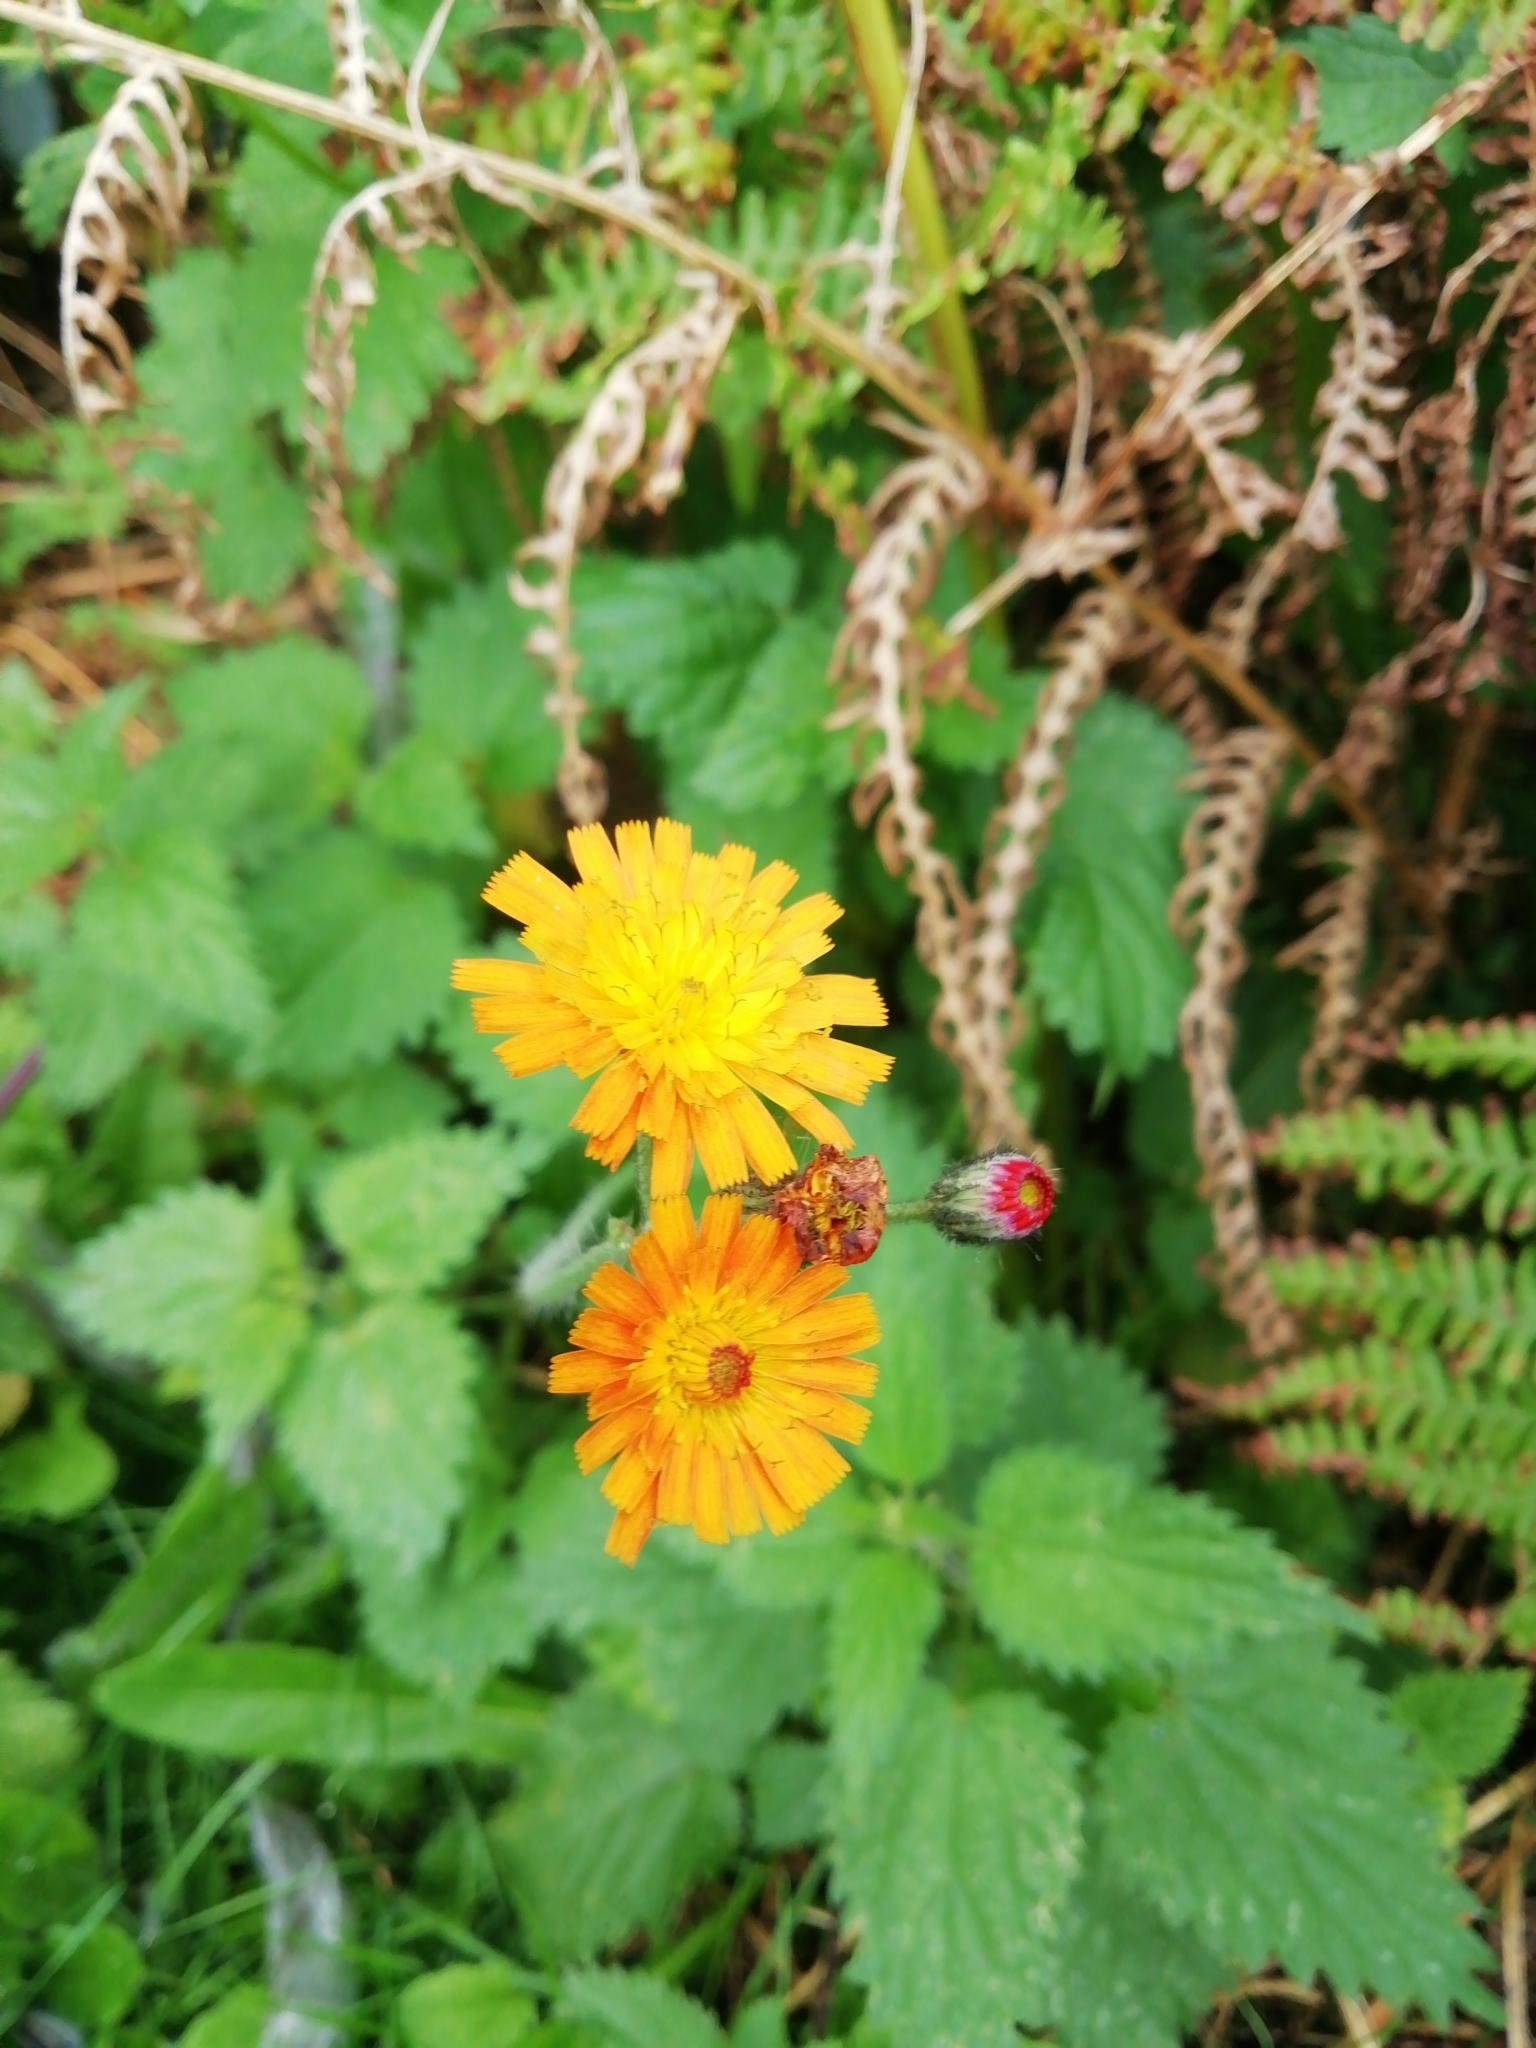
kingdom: Plantae
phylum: Tracheophyta
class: Magnoliopsida
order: Asterales
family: Asteraceae
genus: Pilosella
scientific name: Pilosella aurantiaca
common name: Fox-and-cubs
